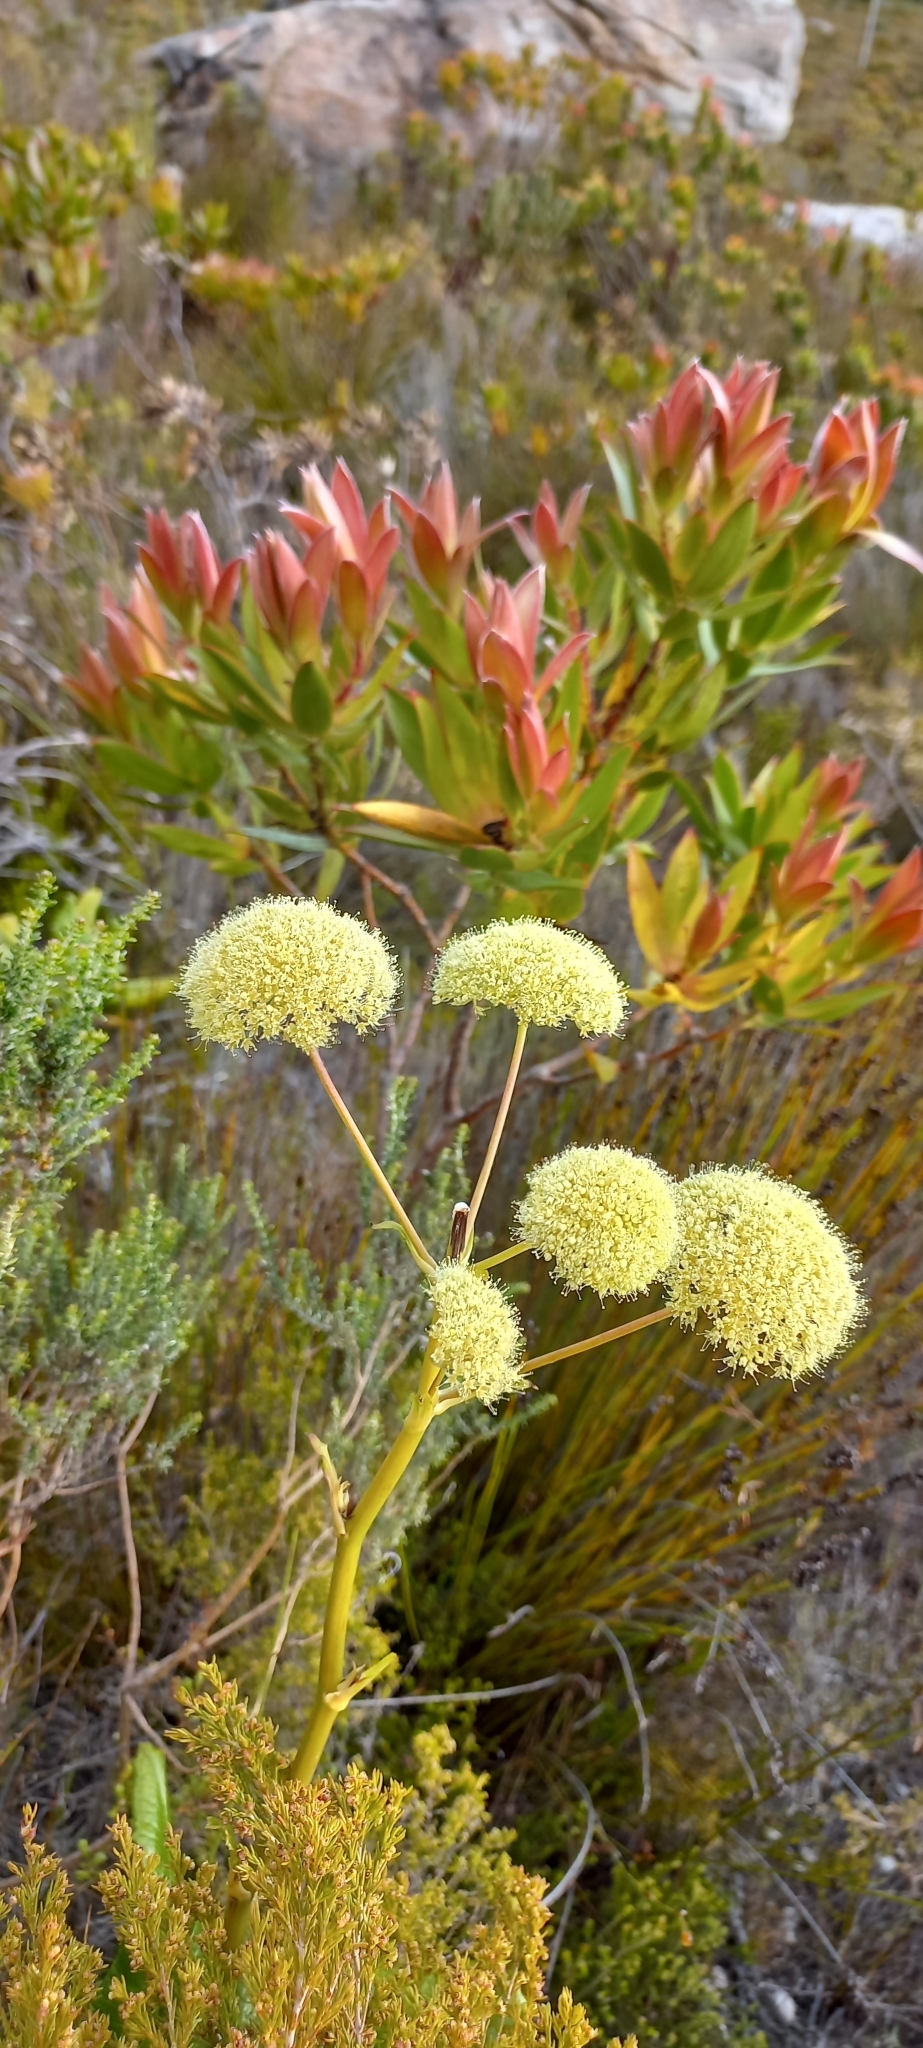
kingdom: Plantae
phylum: Tracheophyta
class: Magnoliopsida
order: Apiales
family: Apiaceae
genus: Hermas
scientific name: Hermas villosa
